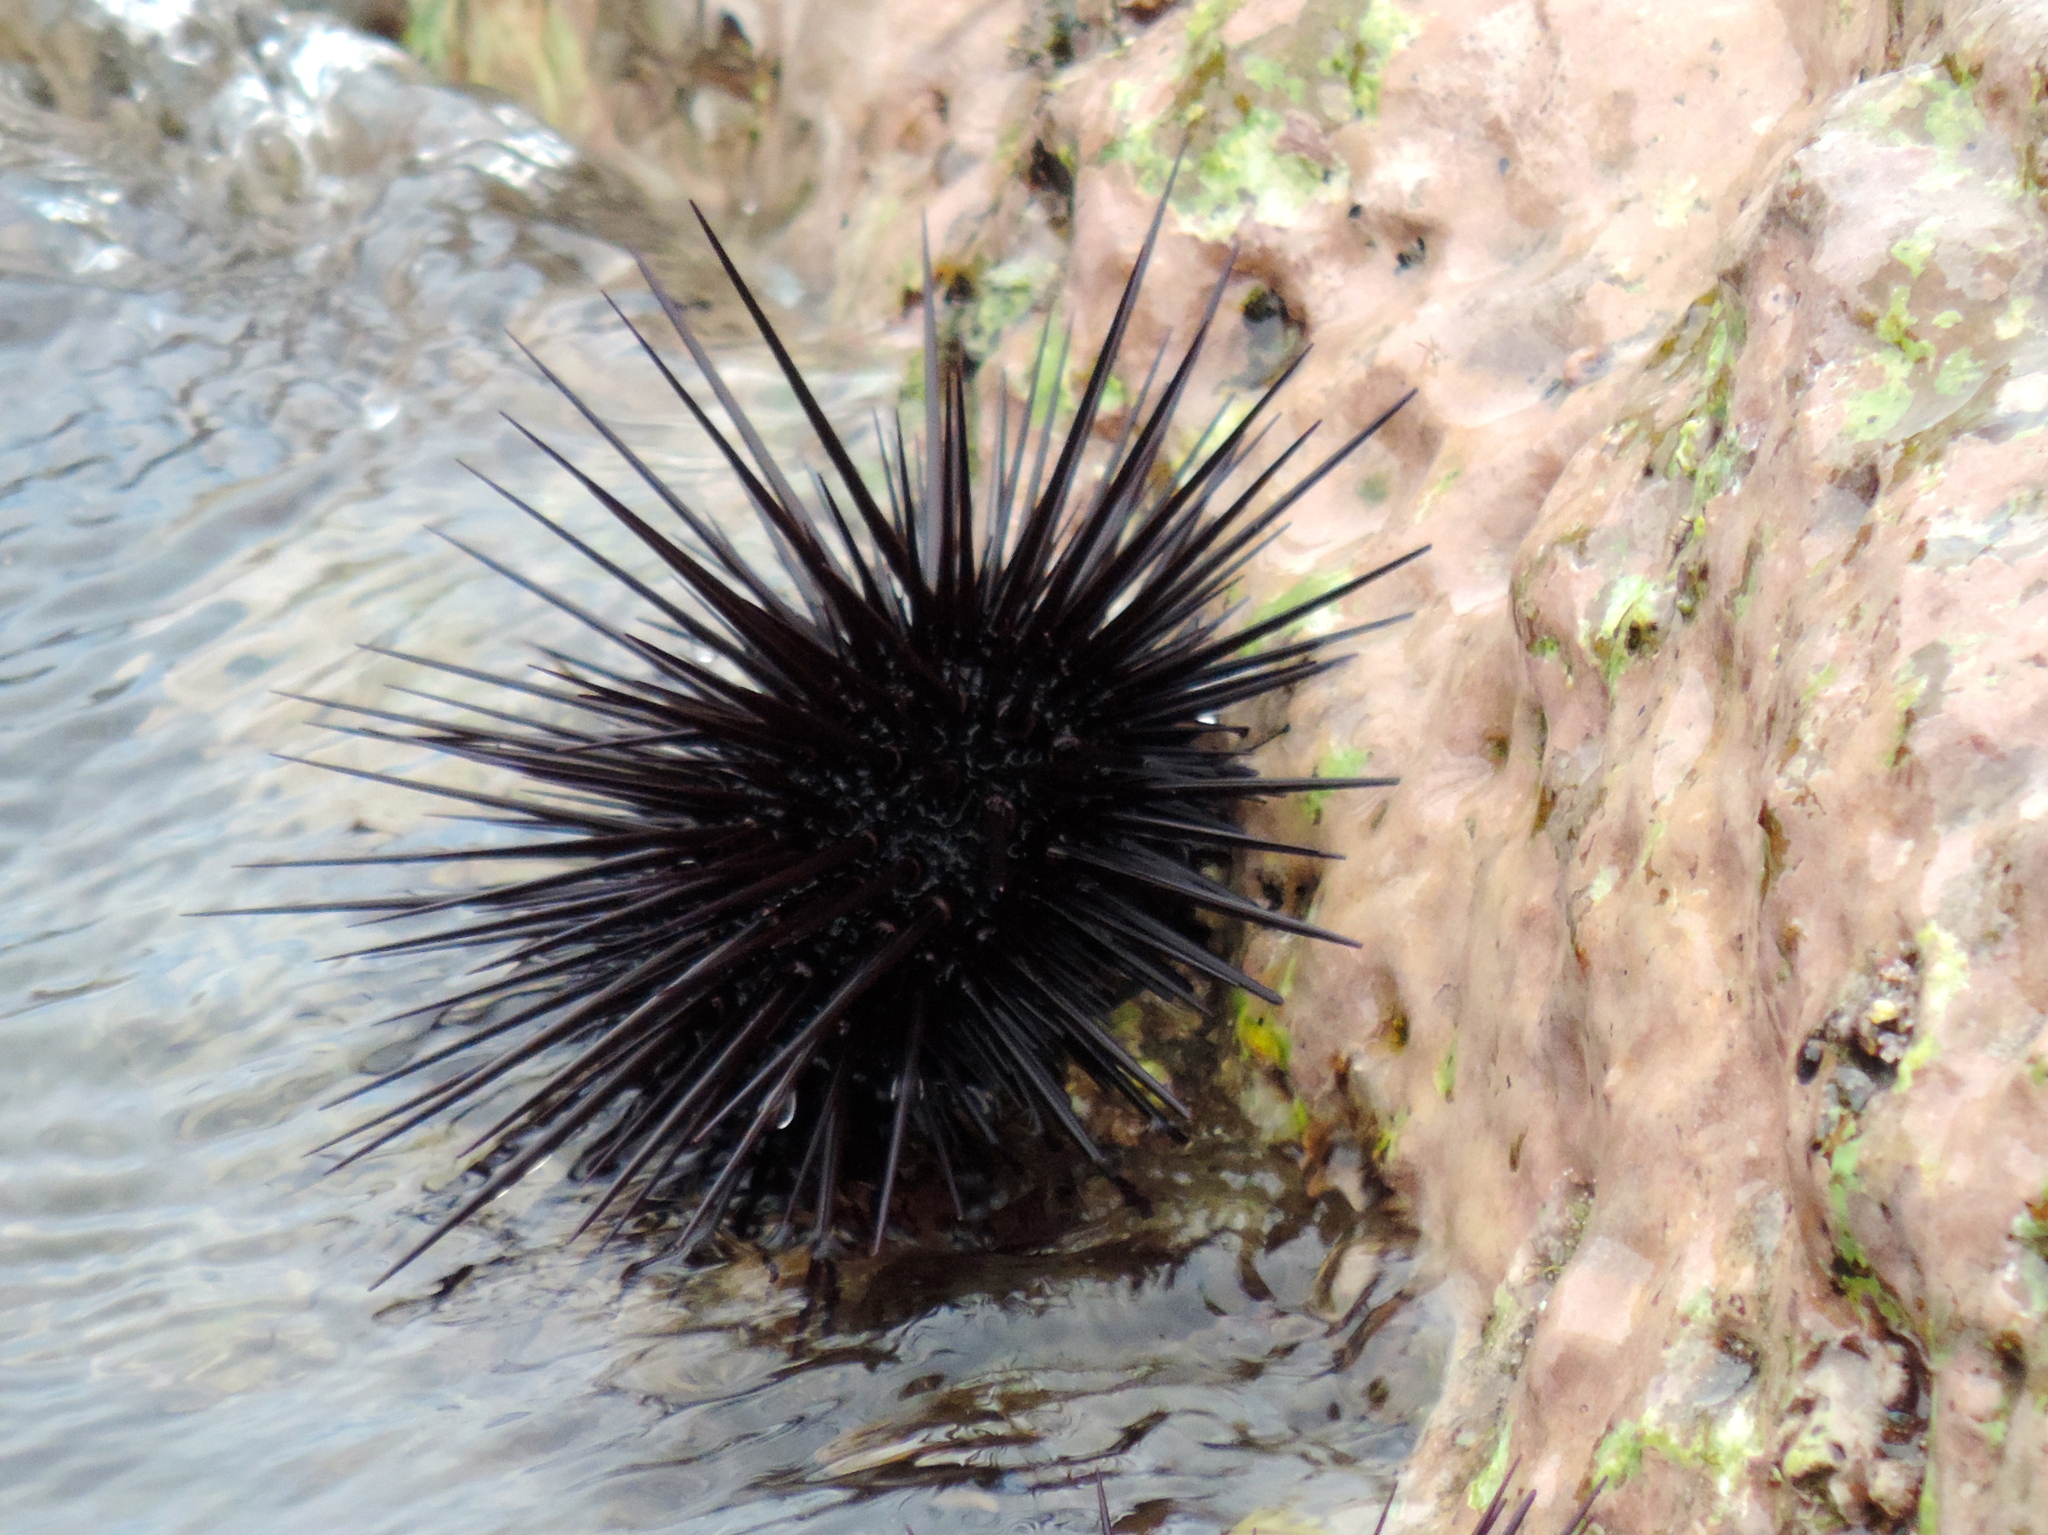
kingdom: Animalia
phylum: Echinodermata
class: Echinoidea
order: Camarodonta
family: Echinometridae
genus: Echinometra
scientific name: Echinometra vanbrunti
